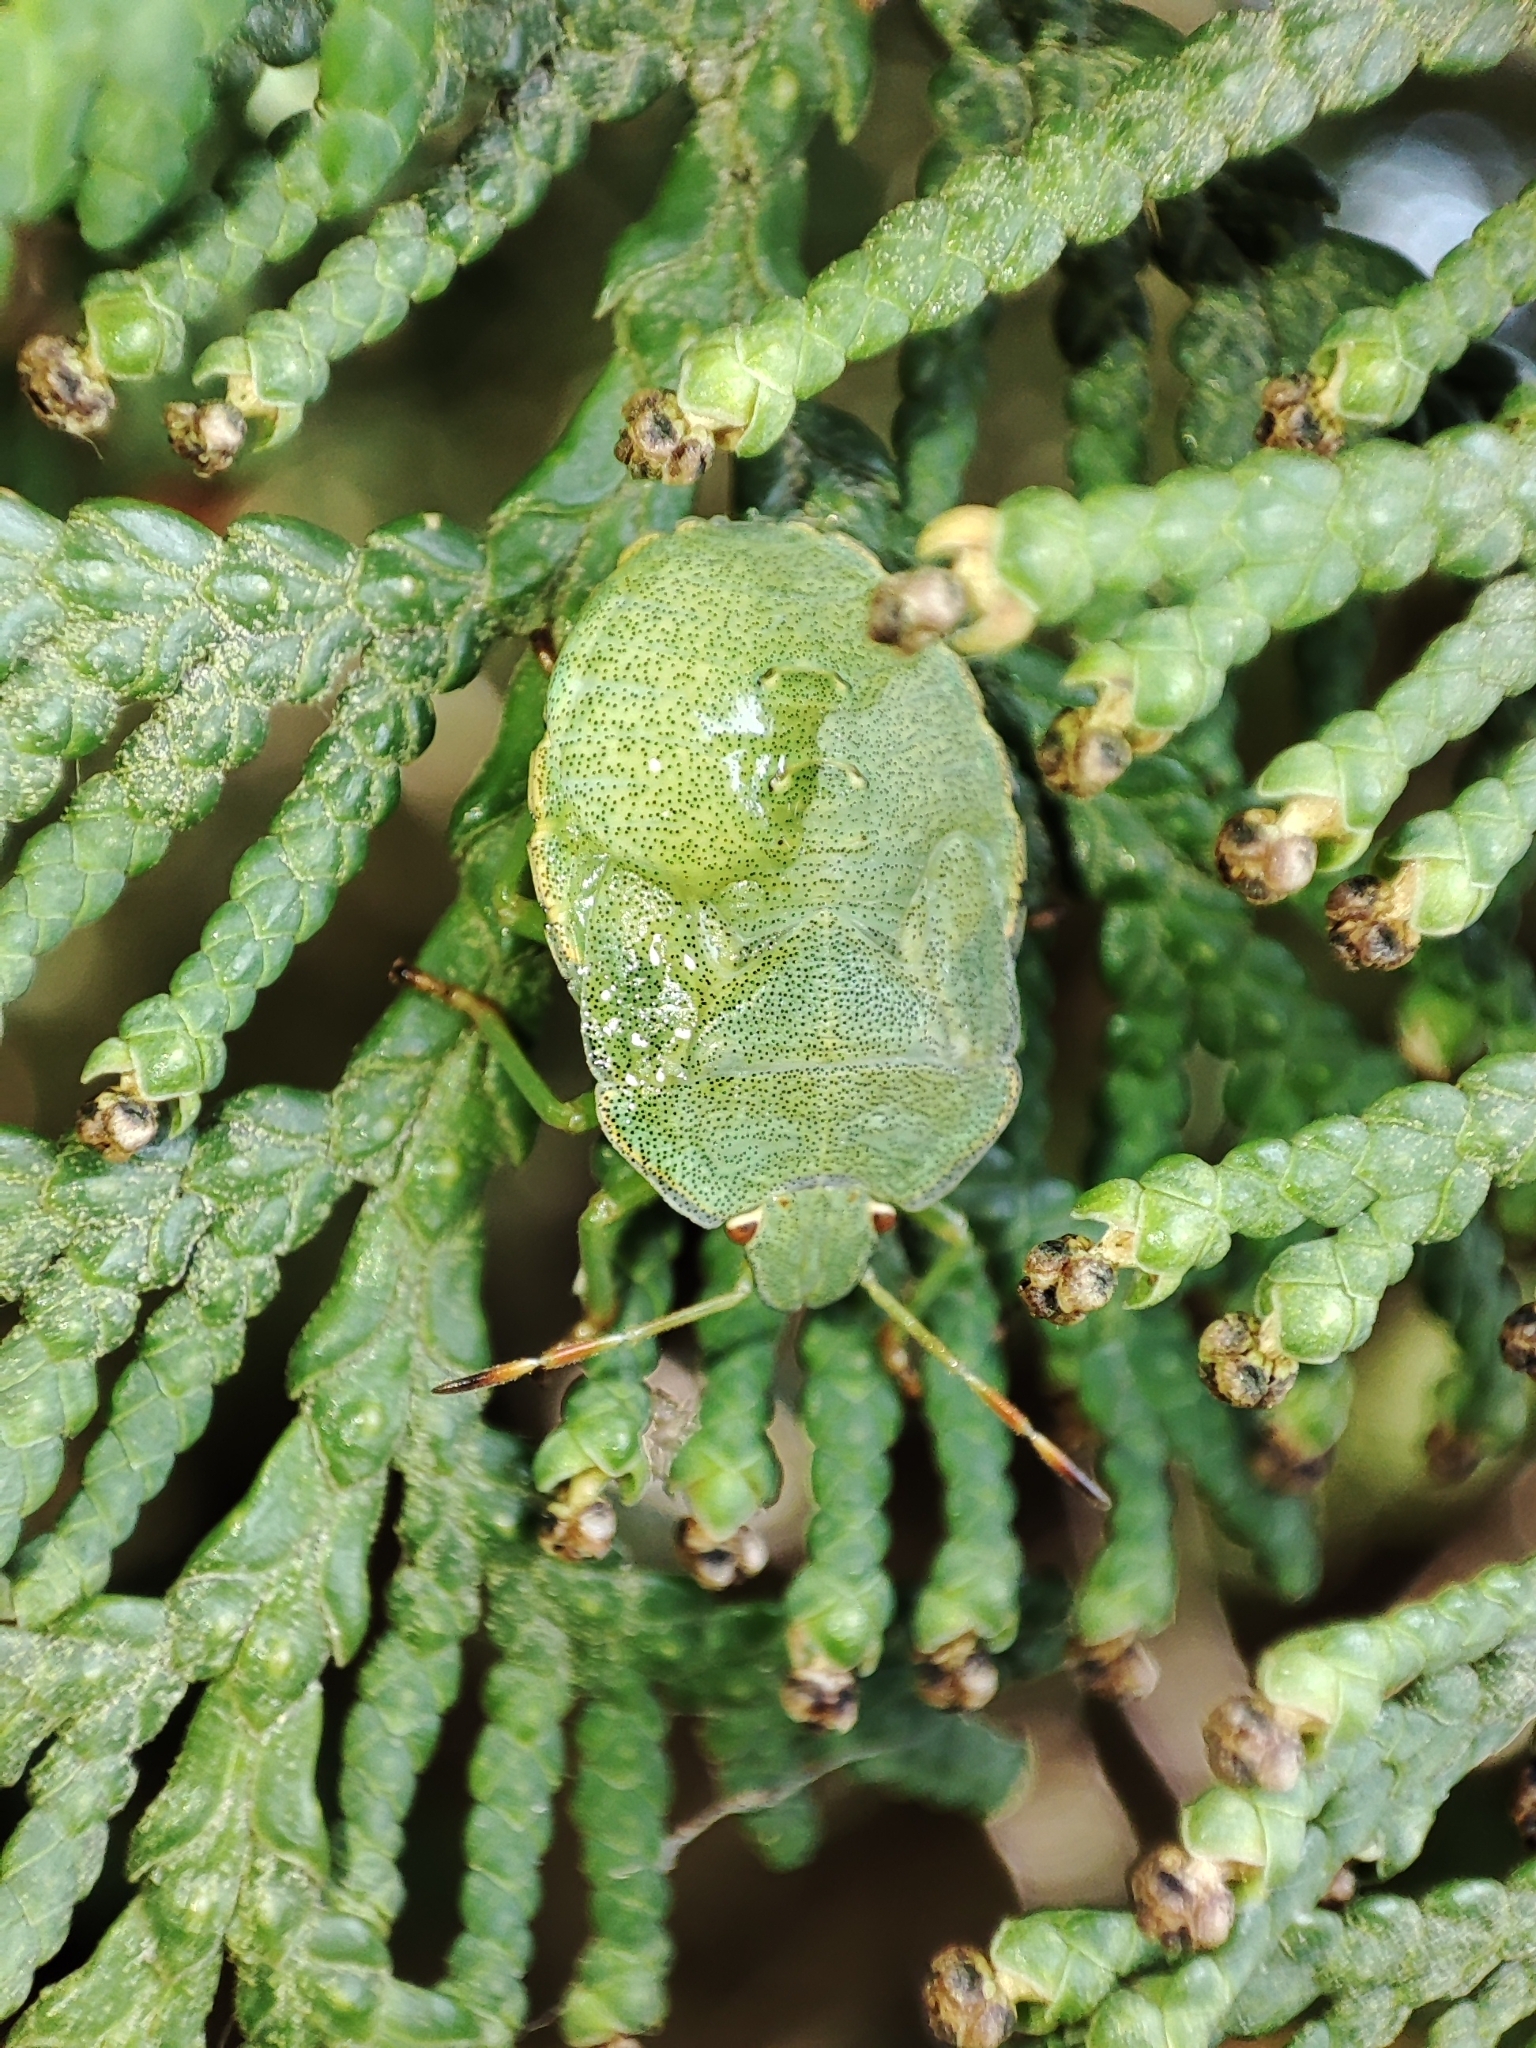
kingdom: Animalia
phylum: Arthropoda
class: Insecta
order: Hemiptera
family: Pentatomidae
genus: Palomena
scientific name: Palomena prasina
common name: Green shieldbug
